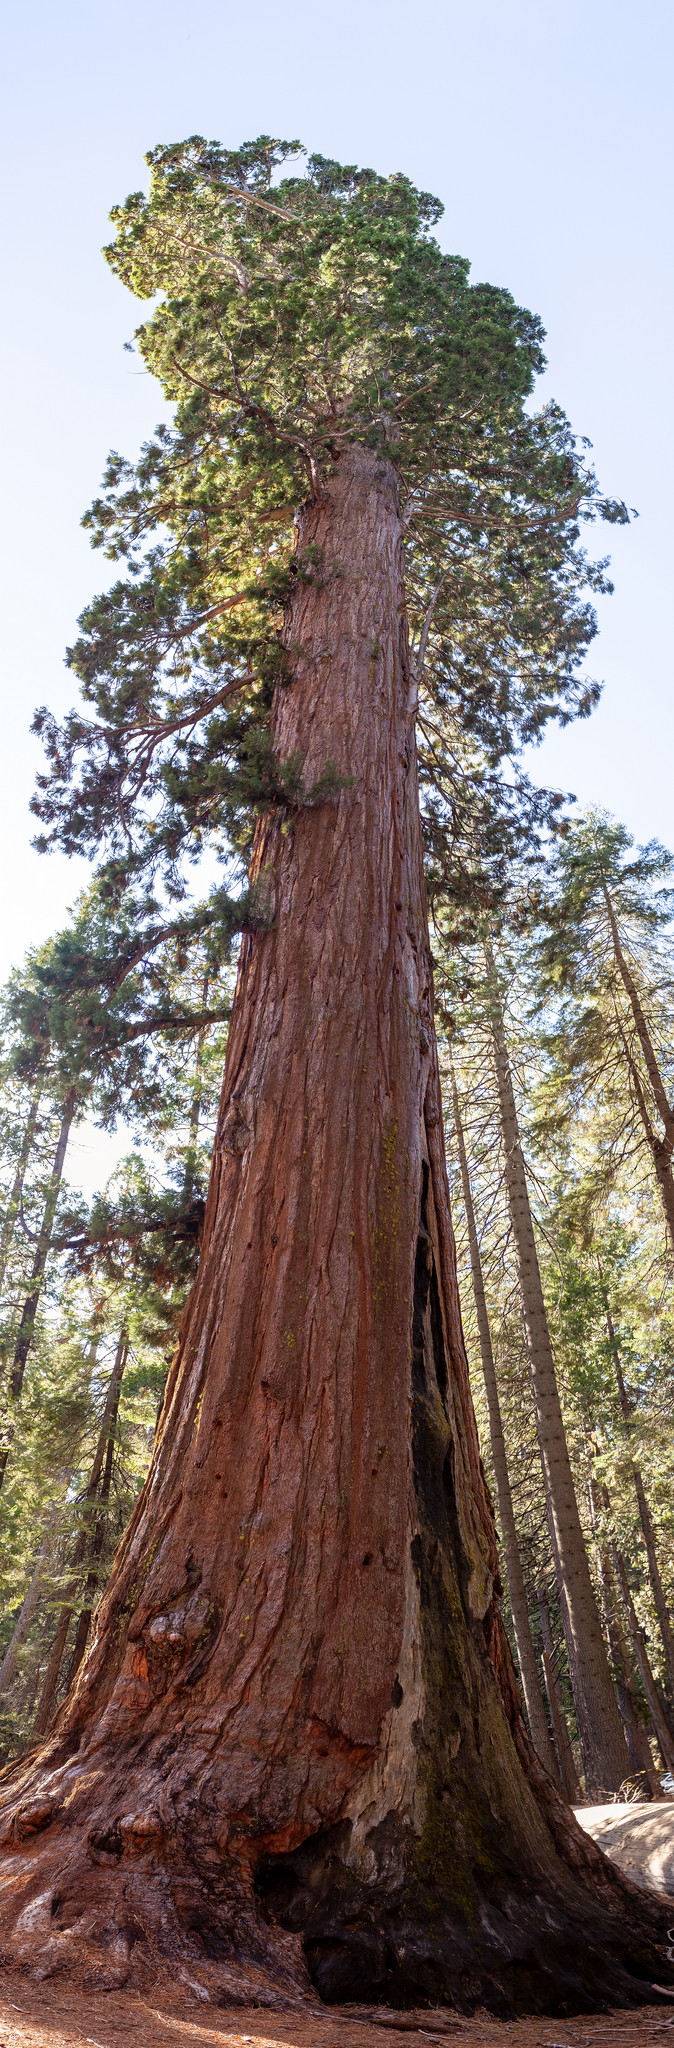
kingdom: Plantae
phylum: Tracheophyta
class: Pinopsida
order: Pinales
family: Cupressaceae
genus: Sequoiadendron
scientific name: Sequoiadendron giganteum
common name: Wellingtonia
